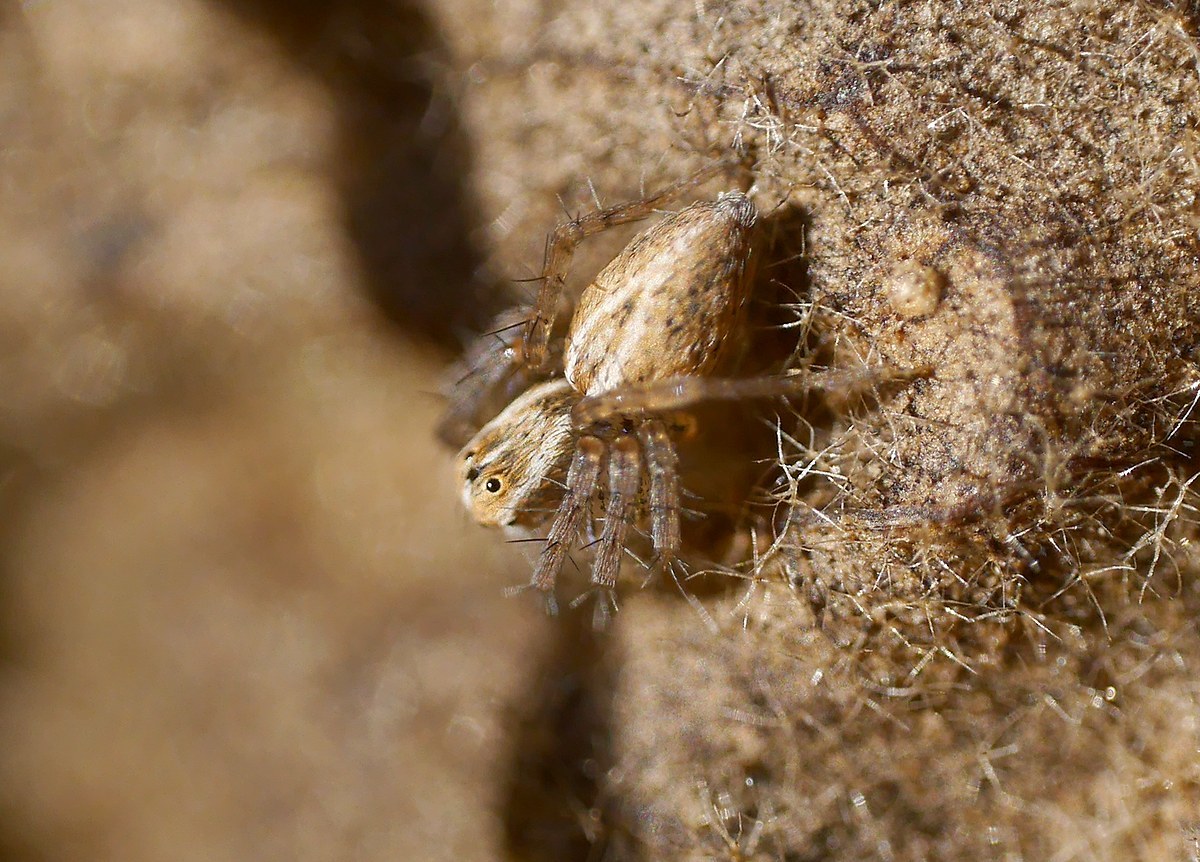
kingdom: Animalia
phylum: Arthropoda
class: Arachnida
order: Araneae
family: Oxyopidae
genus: Oxyopes
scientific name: Oxyopes lineatus
